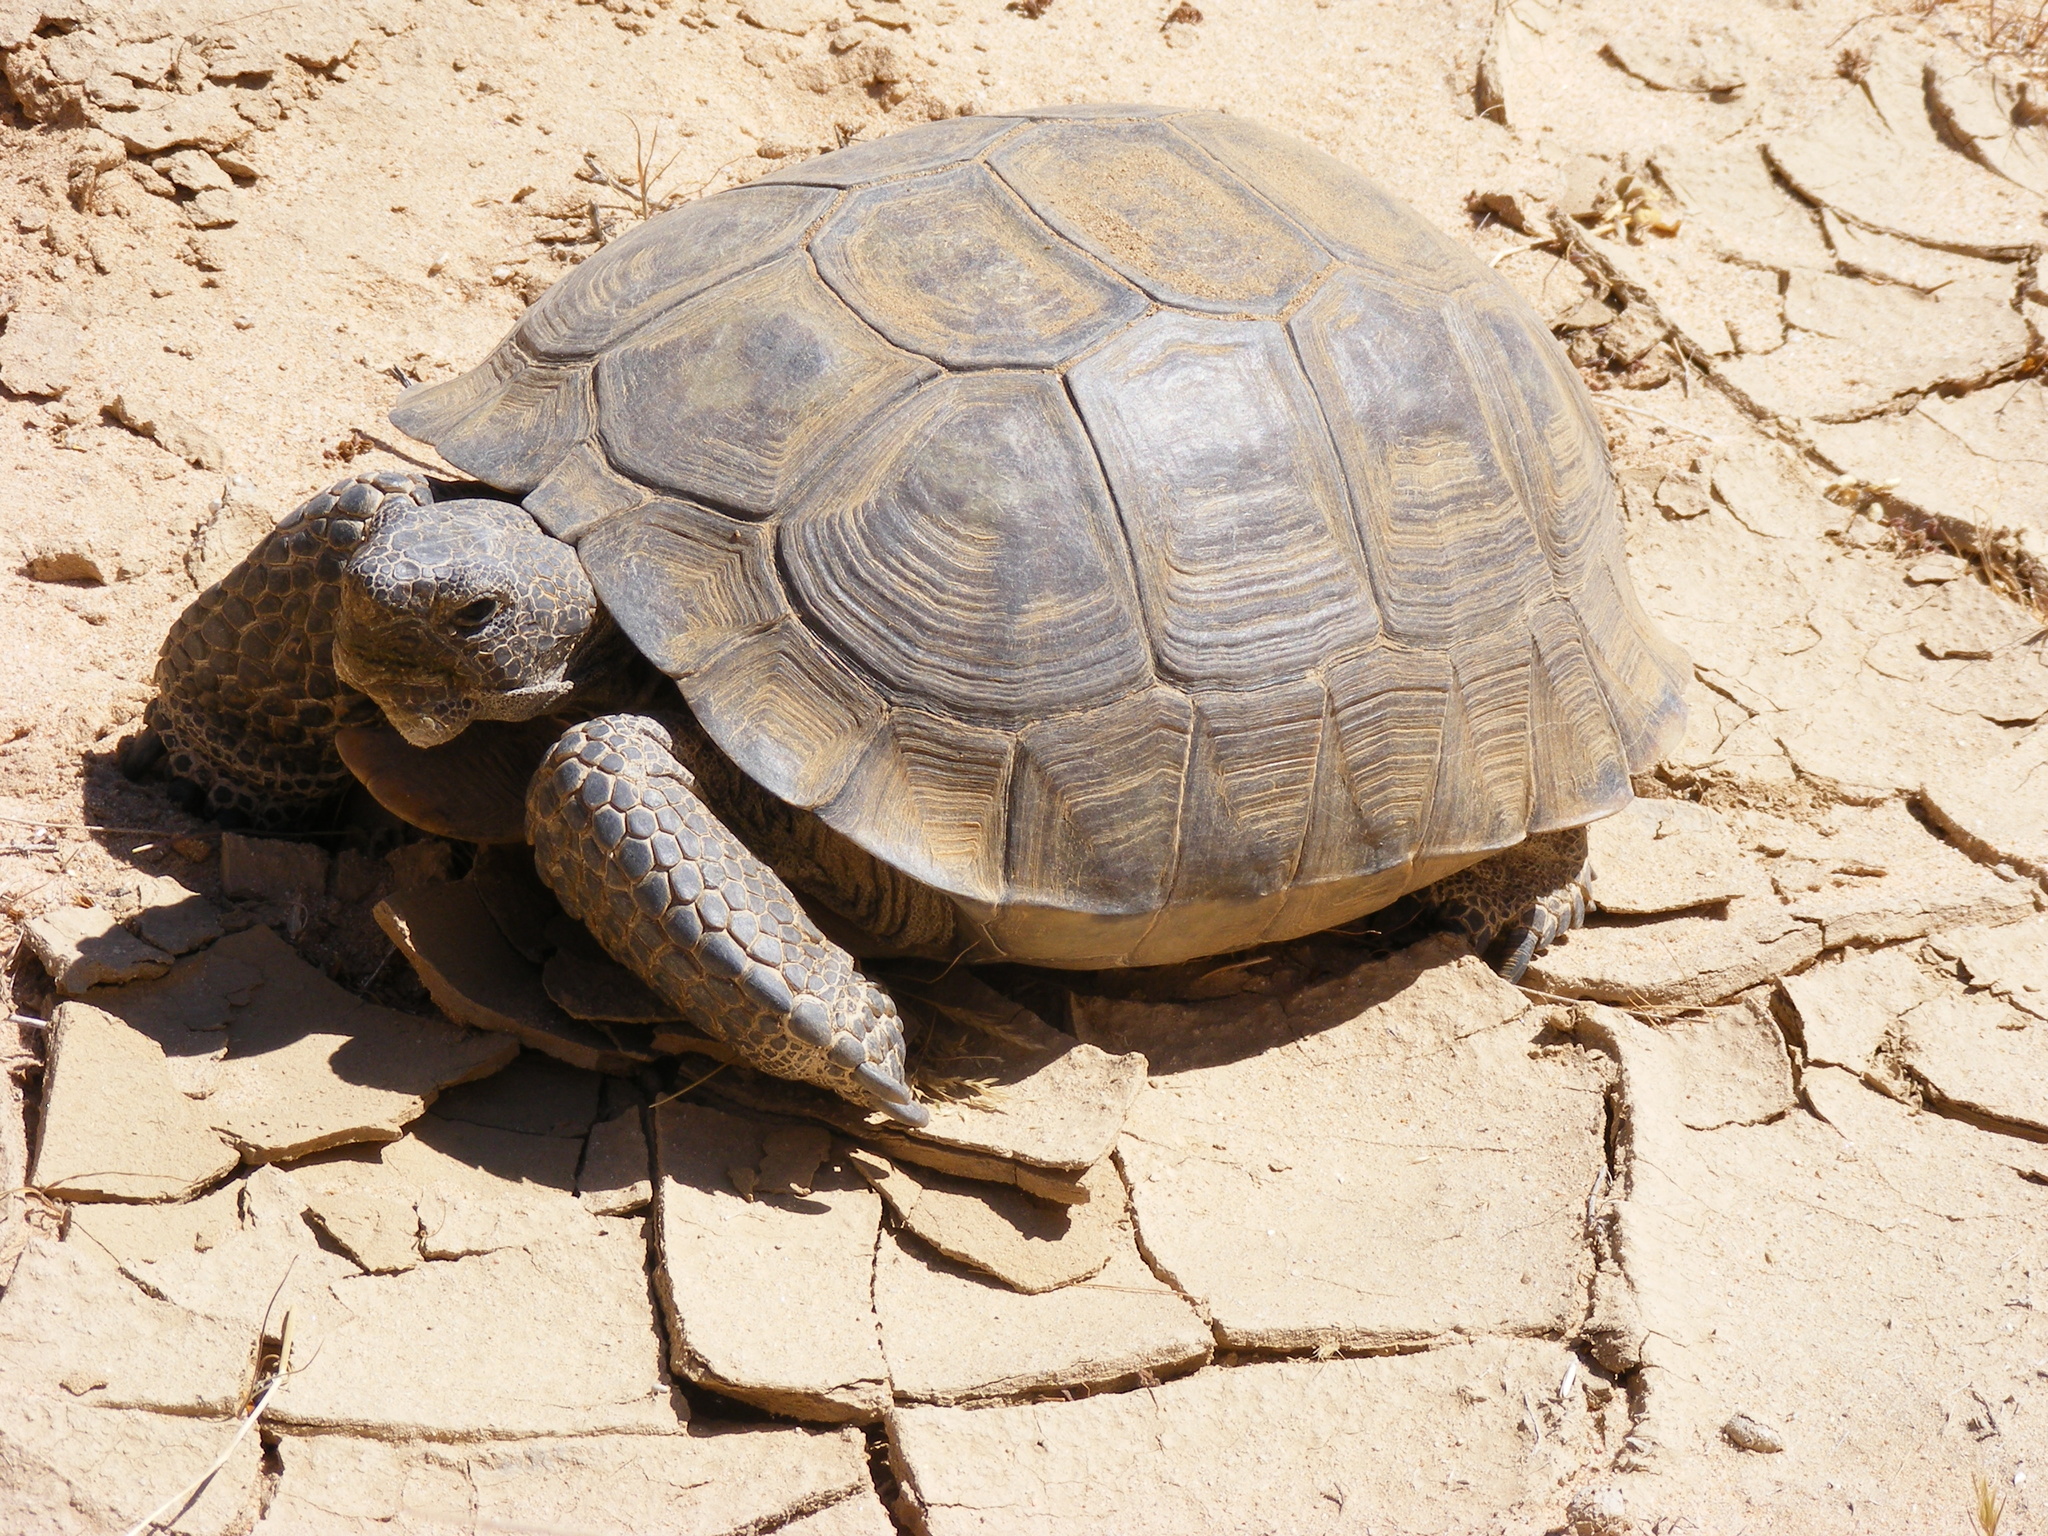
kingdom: Animalia
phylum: Chordata
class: Testudines
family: Testudinidae
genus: Gopherus
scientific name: Gopherus agassizii
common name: Mojave desert tortoise
